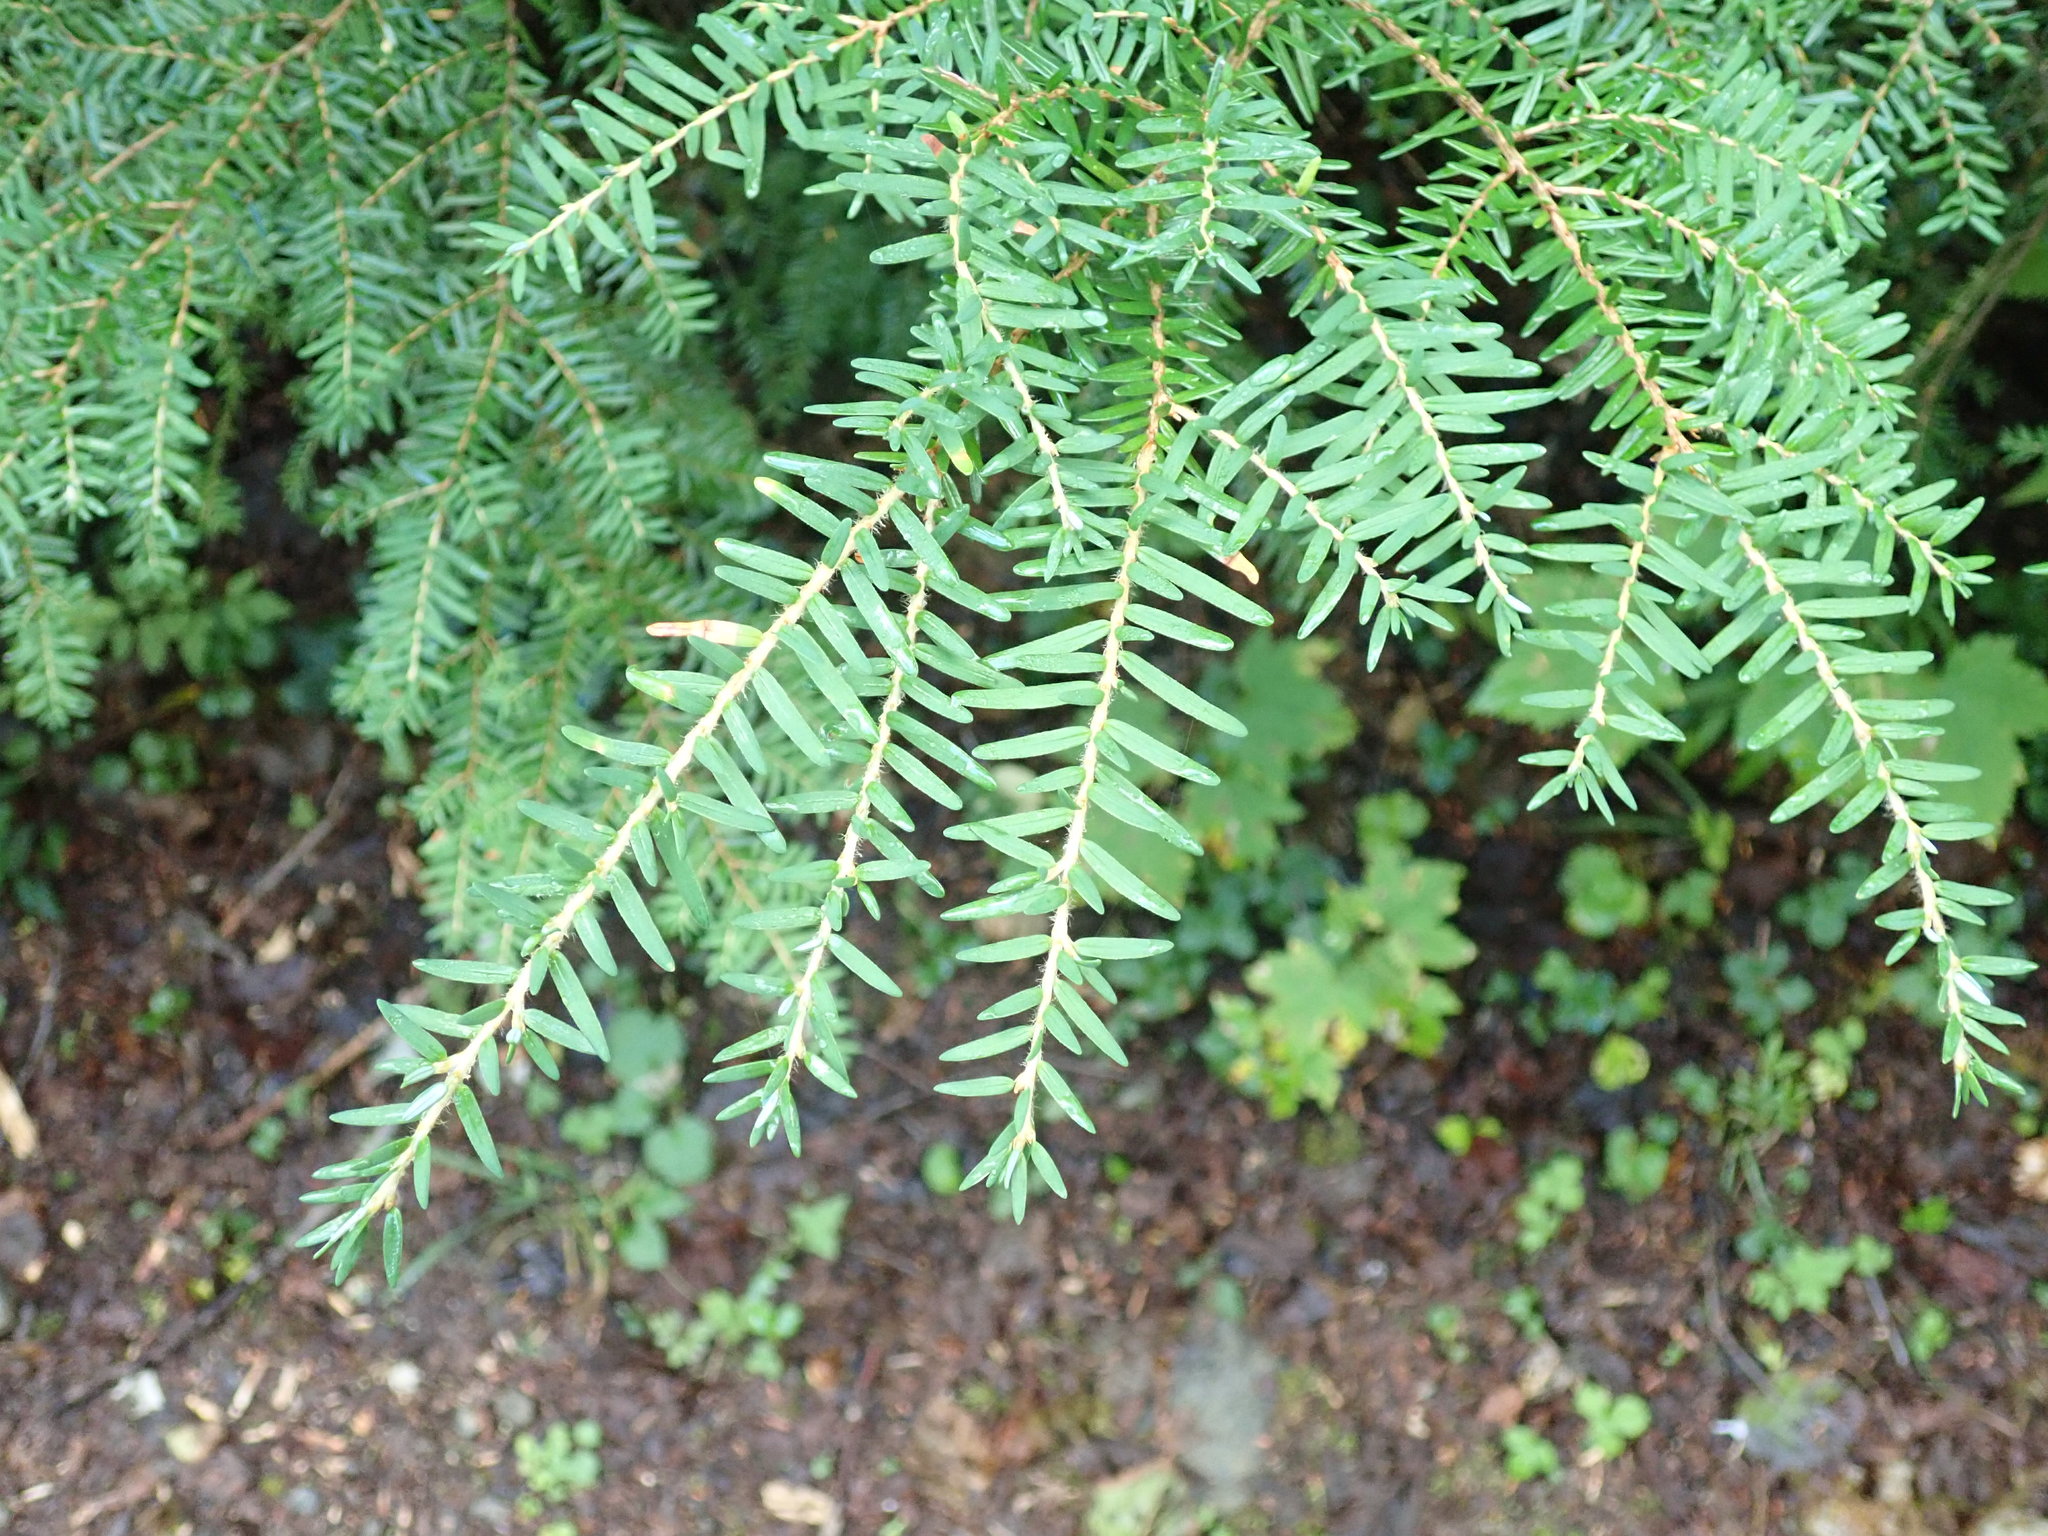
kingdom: Plantae
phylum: Tracheophyta
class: Pinopsida
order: Pinales
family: Pinaceae
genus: Tsuga
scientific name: Tsuga heterophylla
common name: Western hemlock
